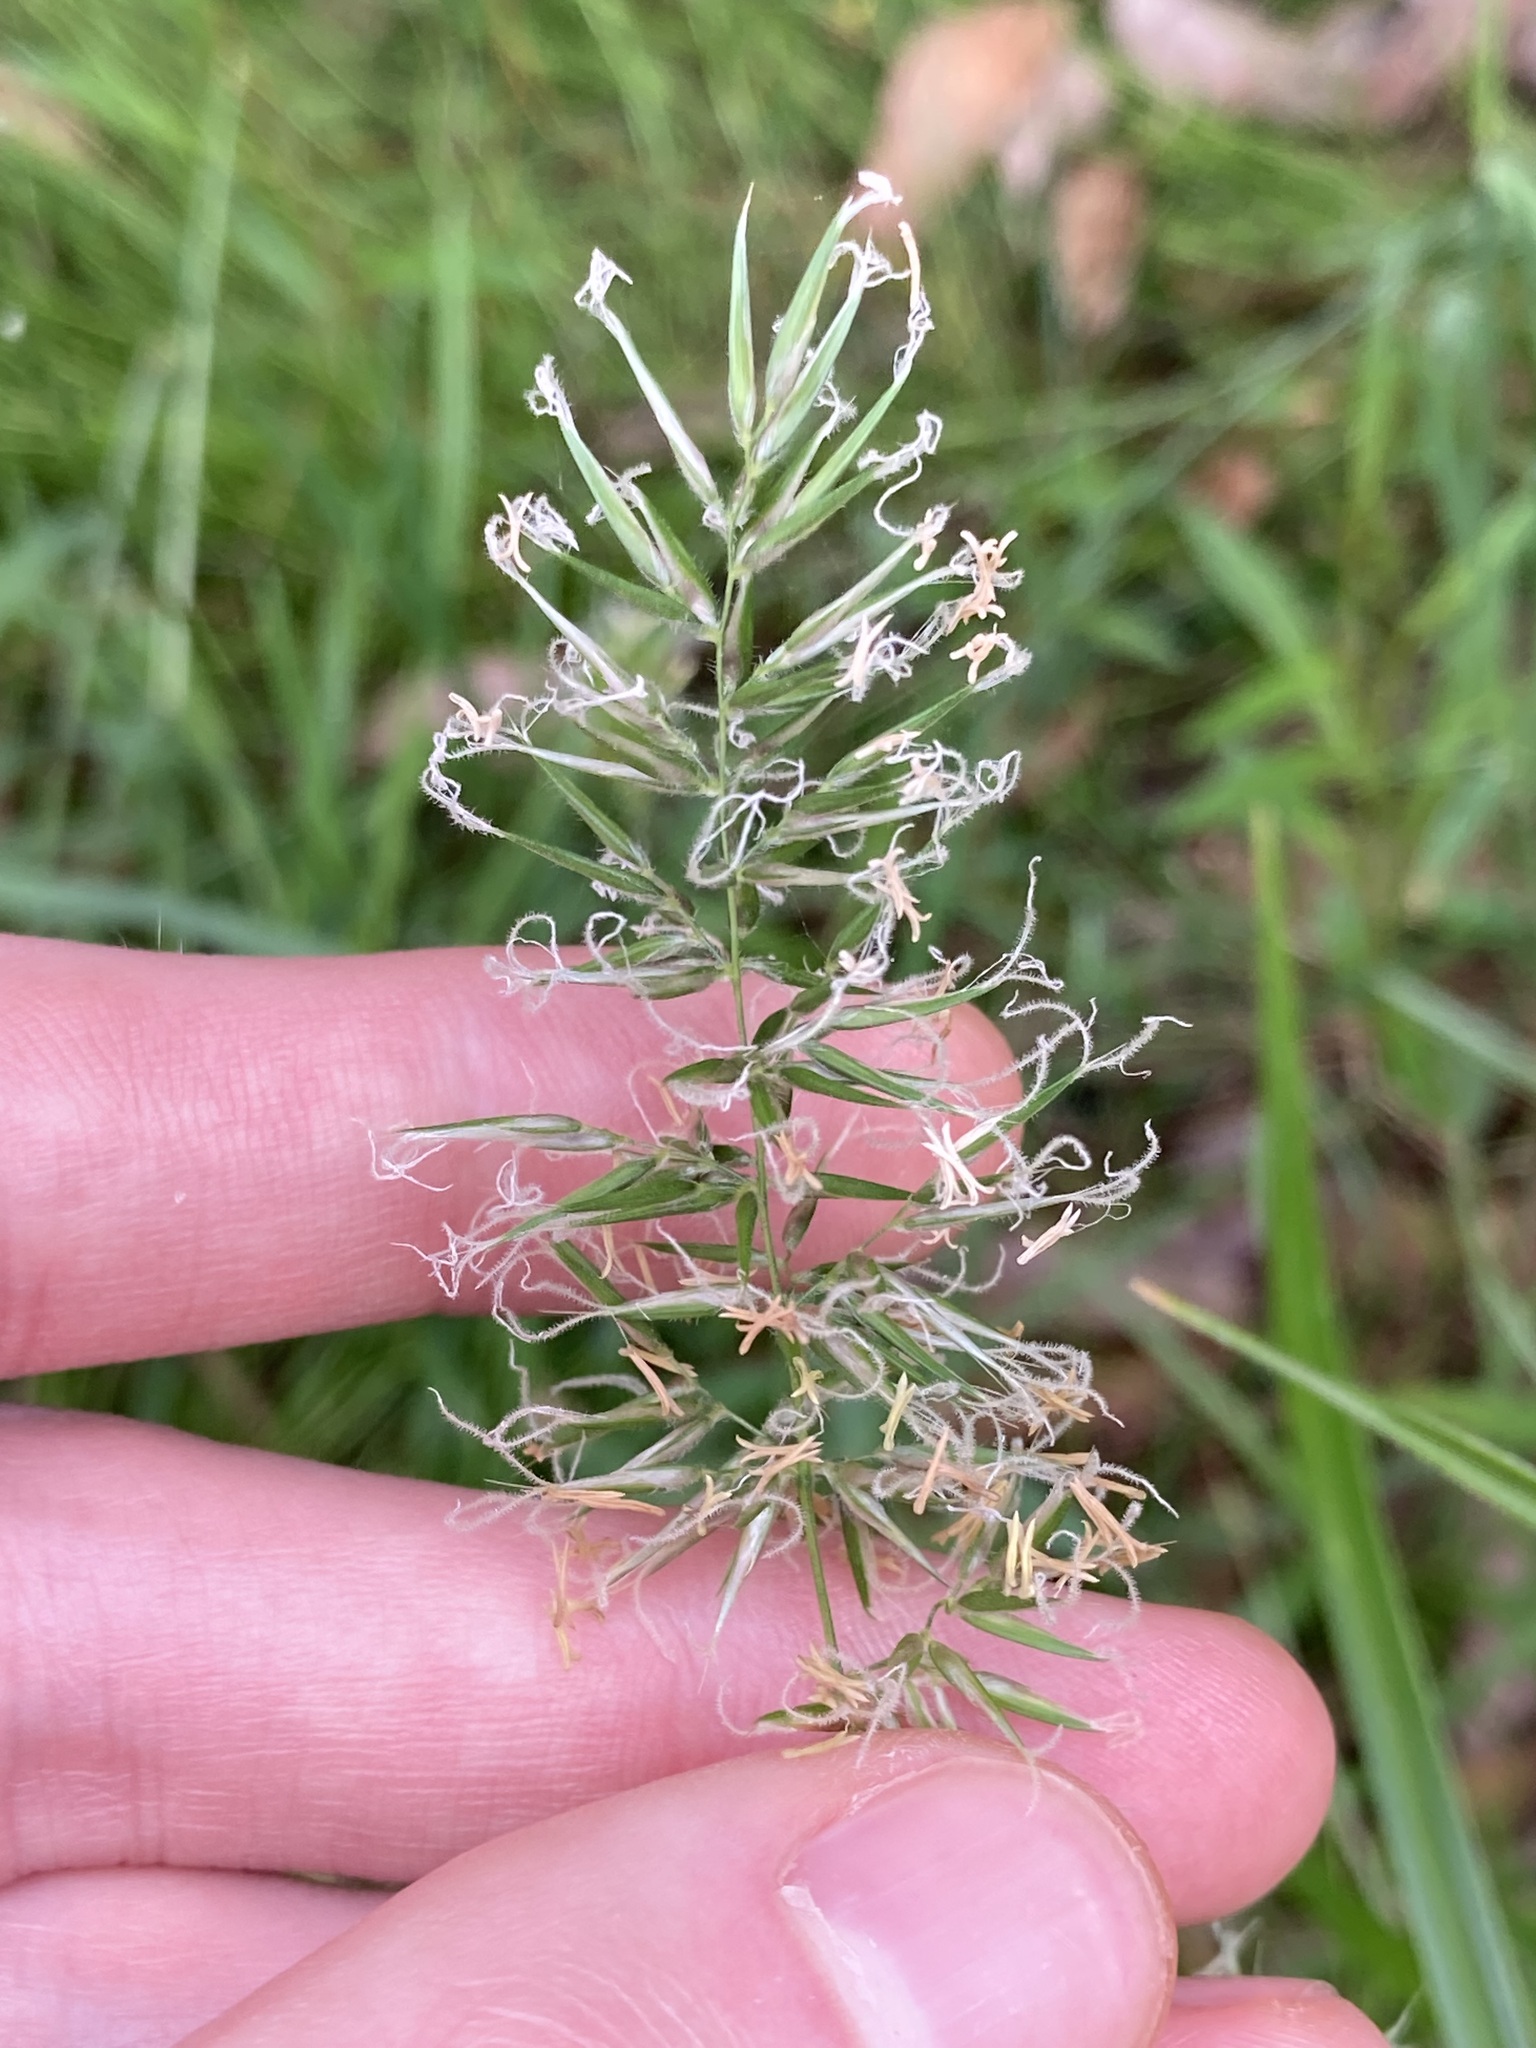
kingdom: Plantae
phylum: Tracheophyta
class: Liliopsida
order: Poales
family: Poaceae
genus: Anthoxanthum
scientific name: Anthoxanthum odoratum
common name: Sweet vernalgrass
